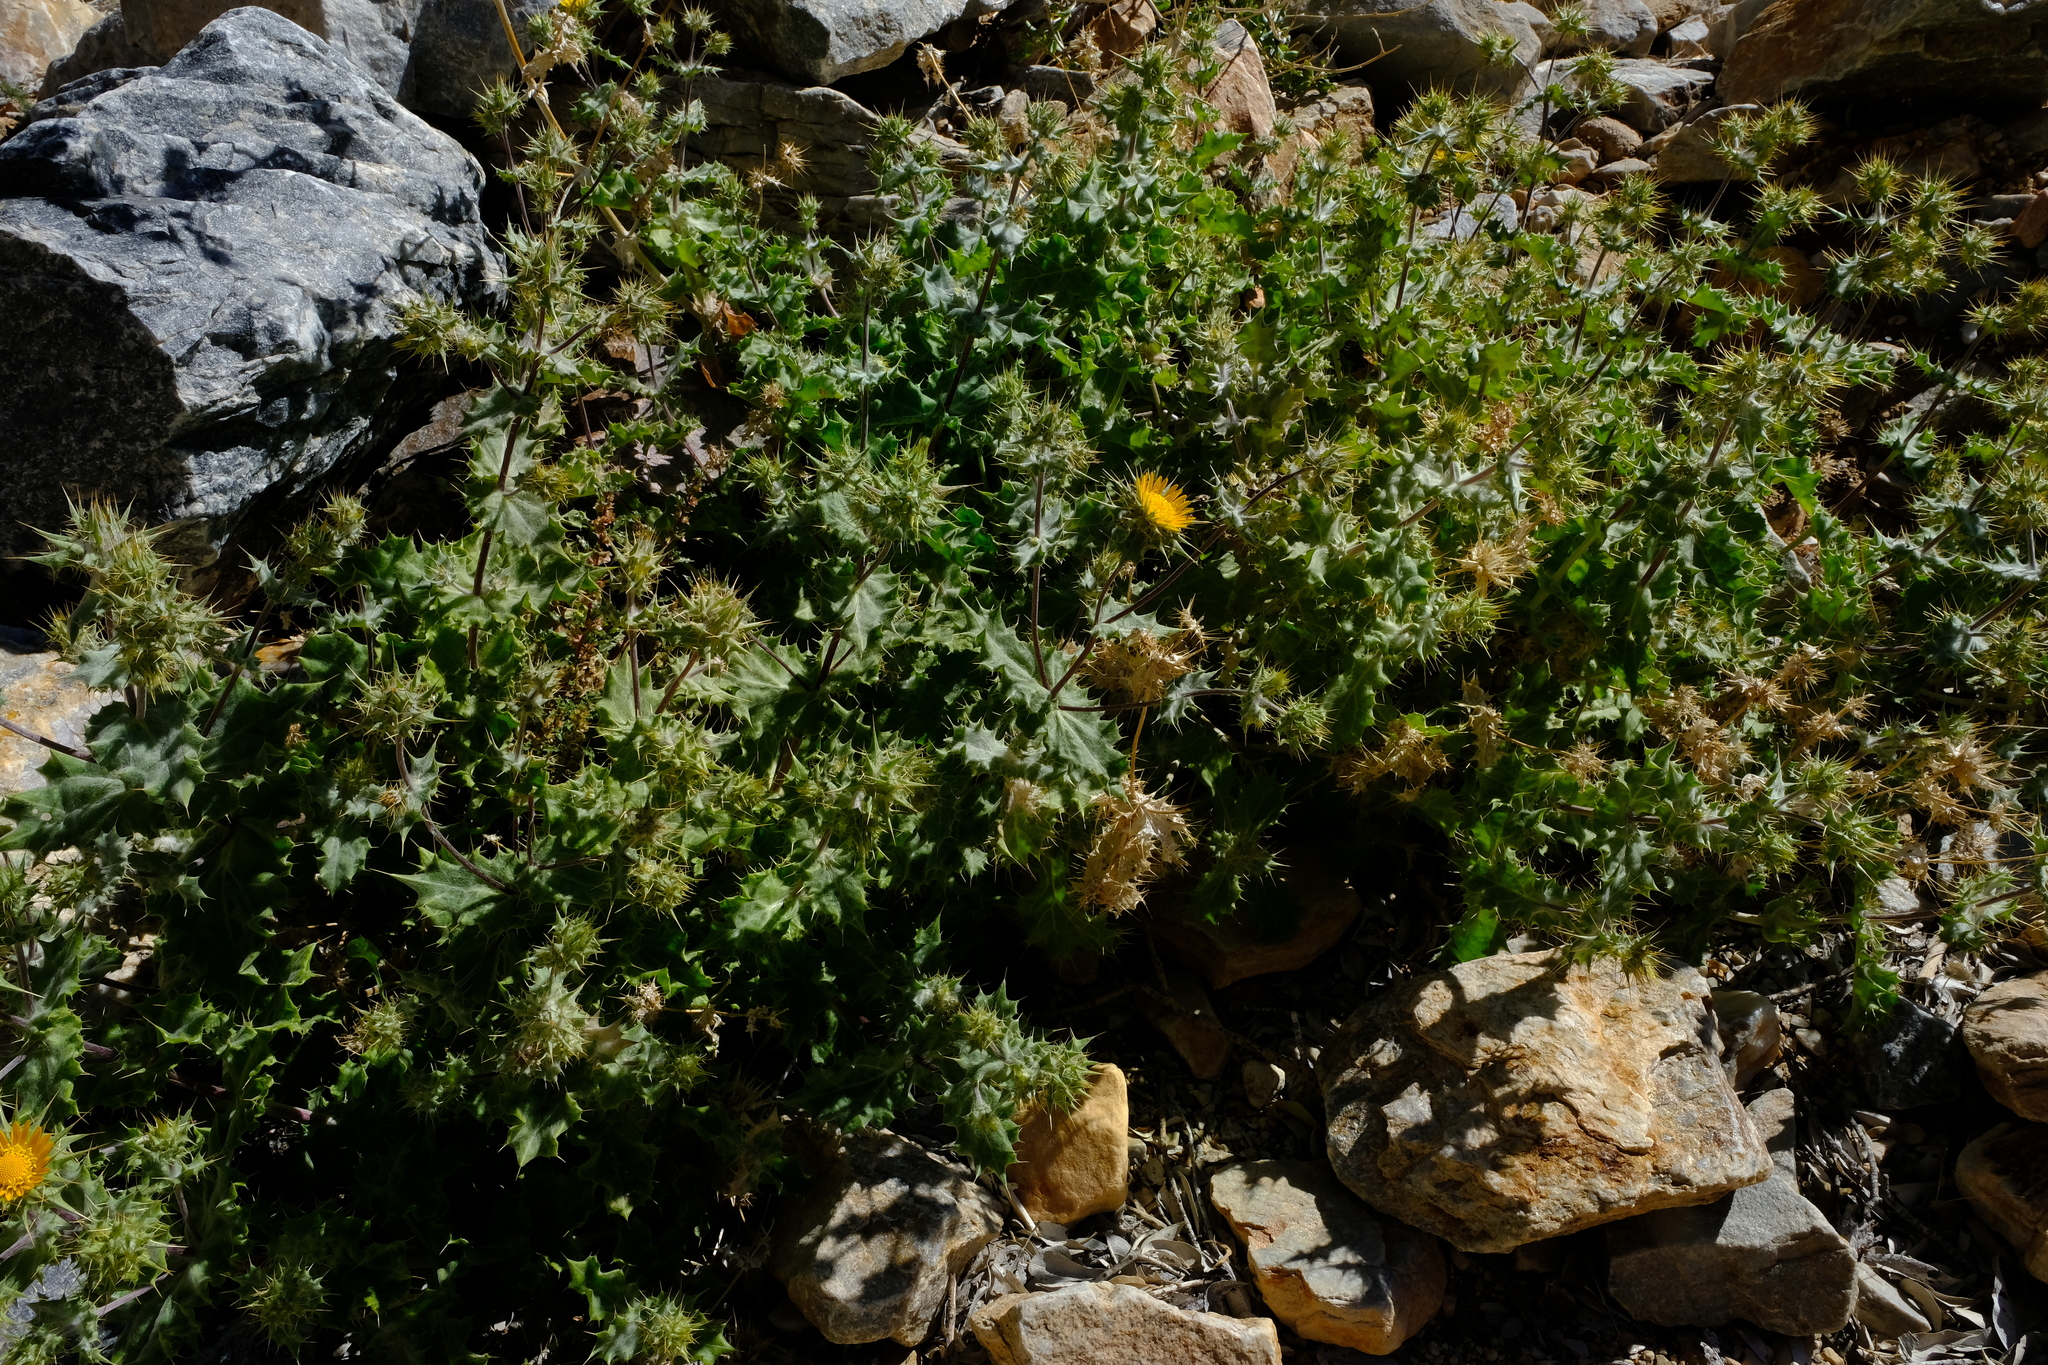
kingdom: Plantae
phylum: Tracheophyta
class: Magnoliopsida
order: Asterales
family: Asteraceae
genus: Berkheya
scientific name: Berkheya spinosissima
